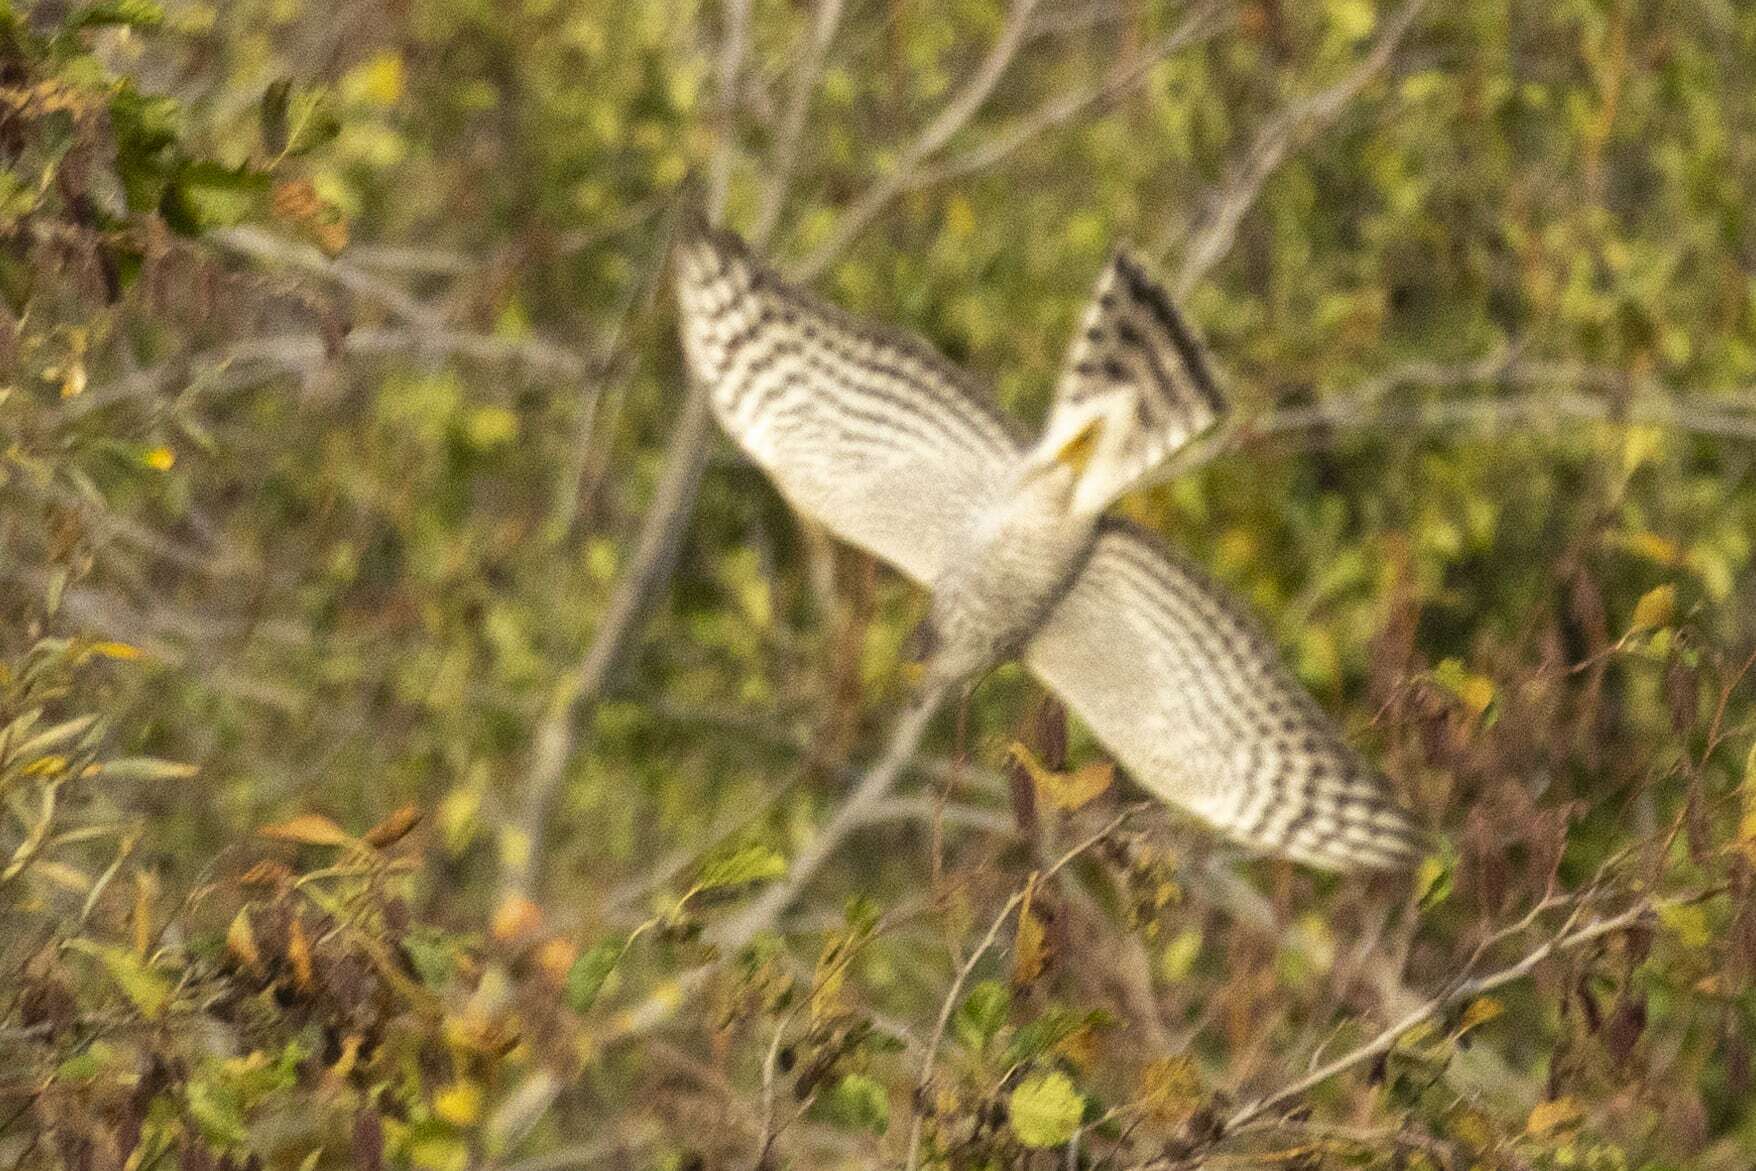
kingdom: Animalia
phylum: Chordata
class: Aves
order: Accipitriformes
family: Accipitridae
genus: Accipiter
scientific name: Accipiter nisus
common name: Eurasian sparrowhawk
